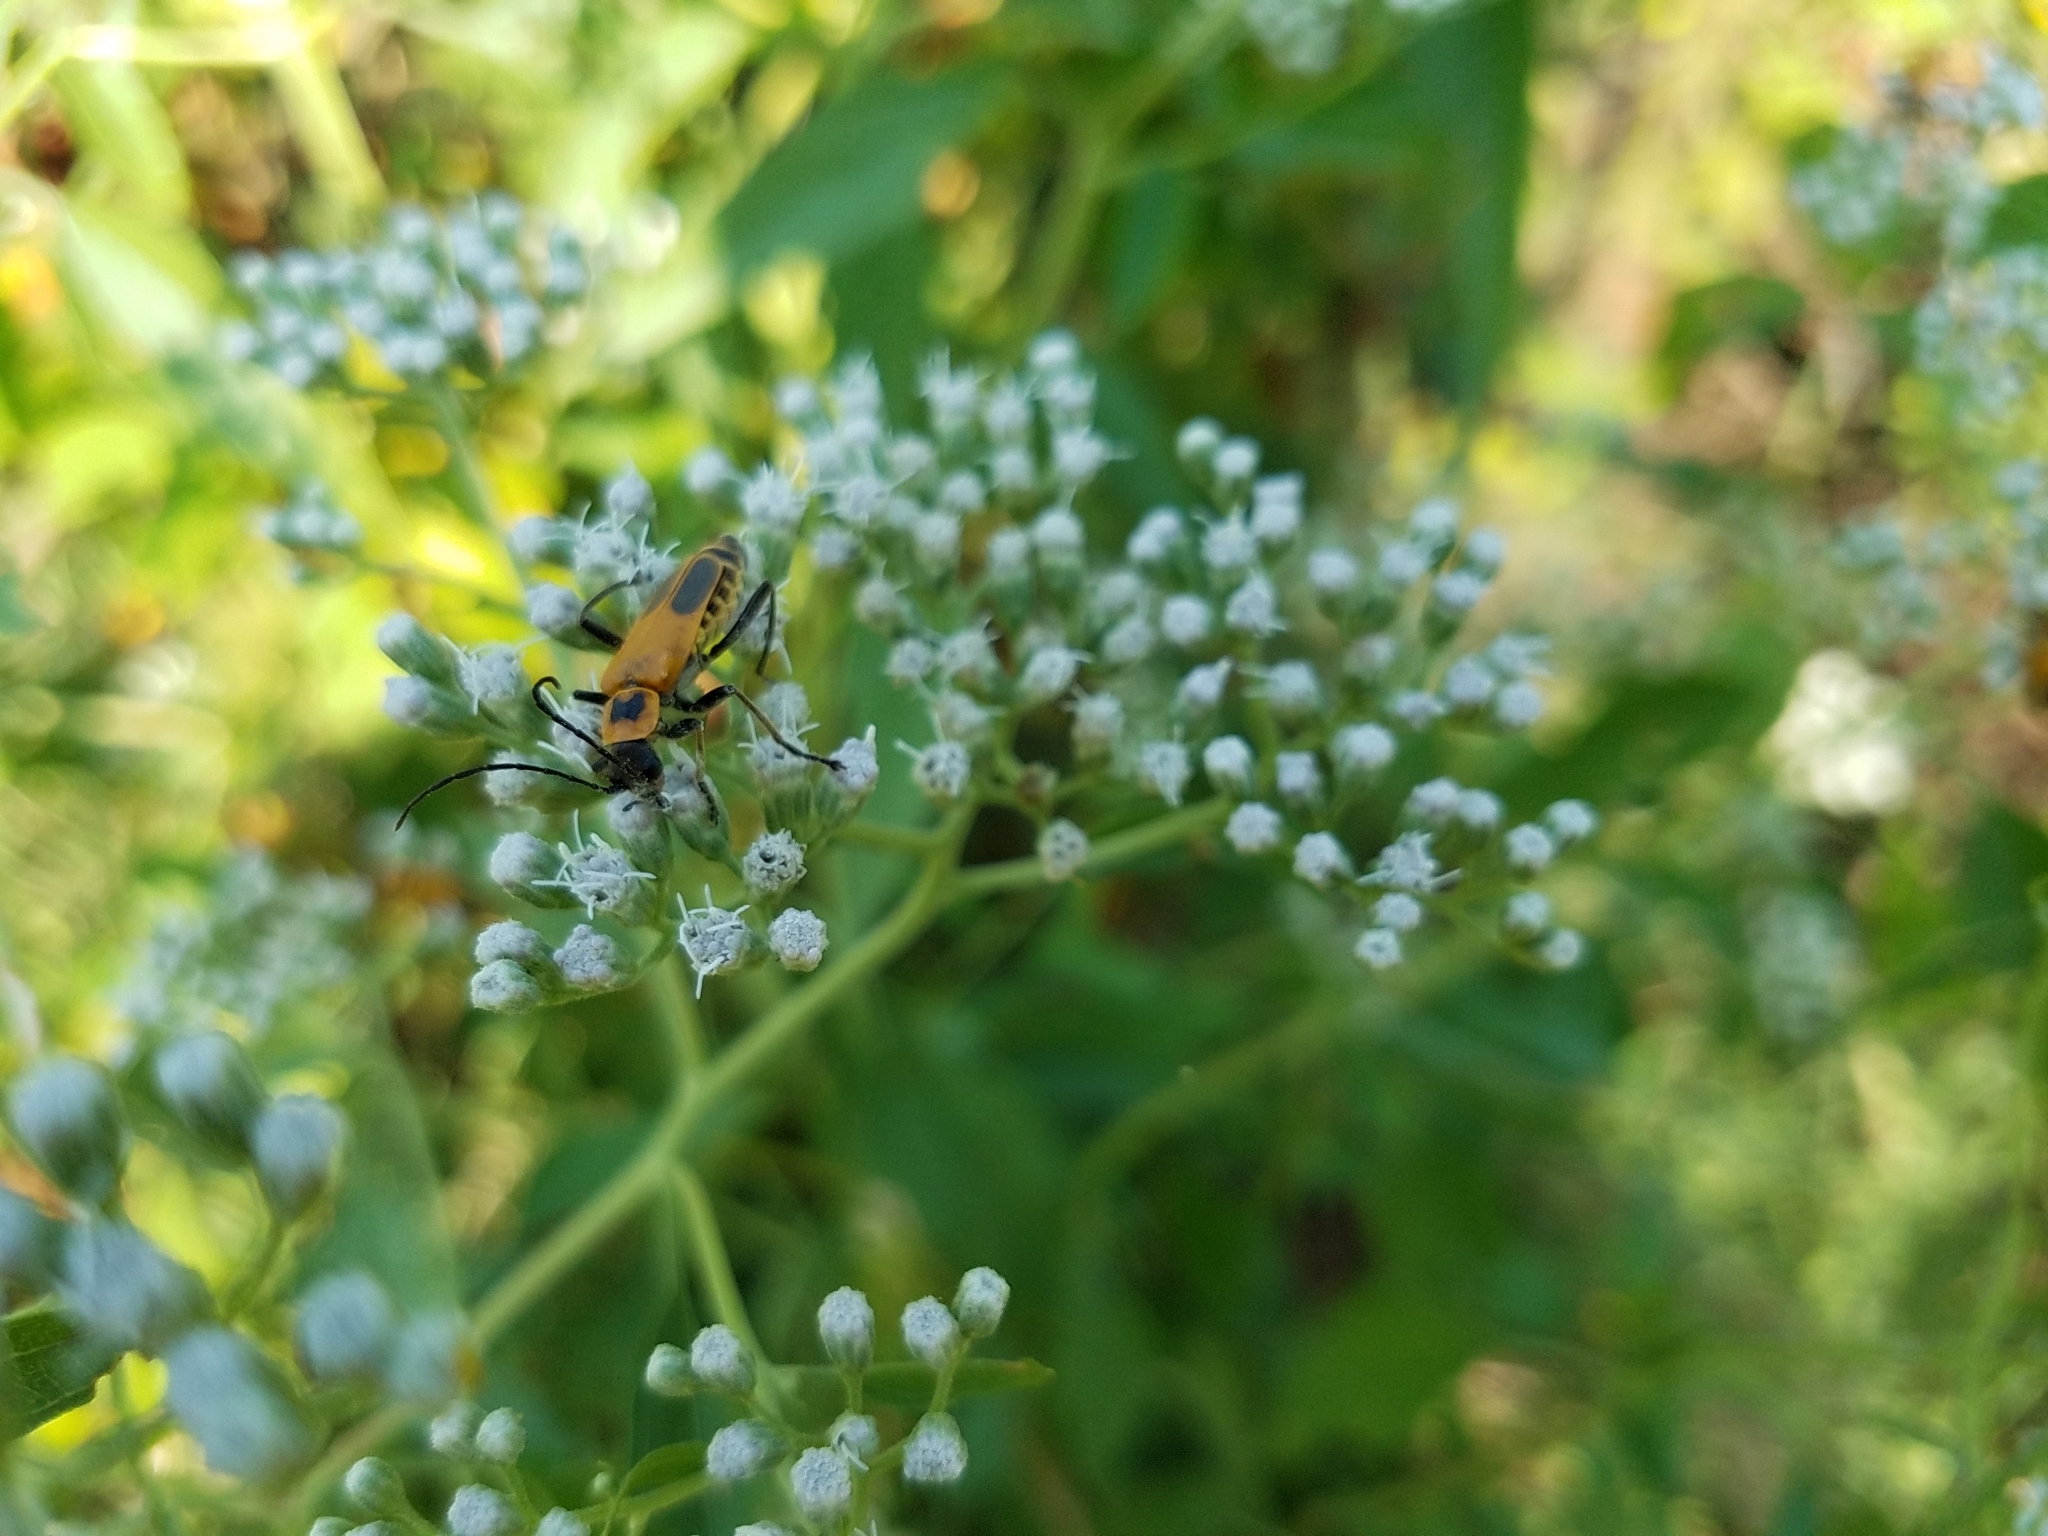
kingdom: Animalia
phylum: Arthropoda
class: Insecta
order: Coleoptera
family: Cantharidae
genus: Chauliognathus
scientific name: Chauliognathus pensylvanicus
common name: Goldenrod soldier beetle
